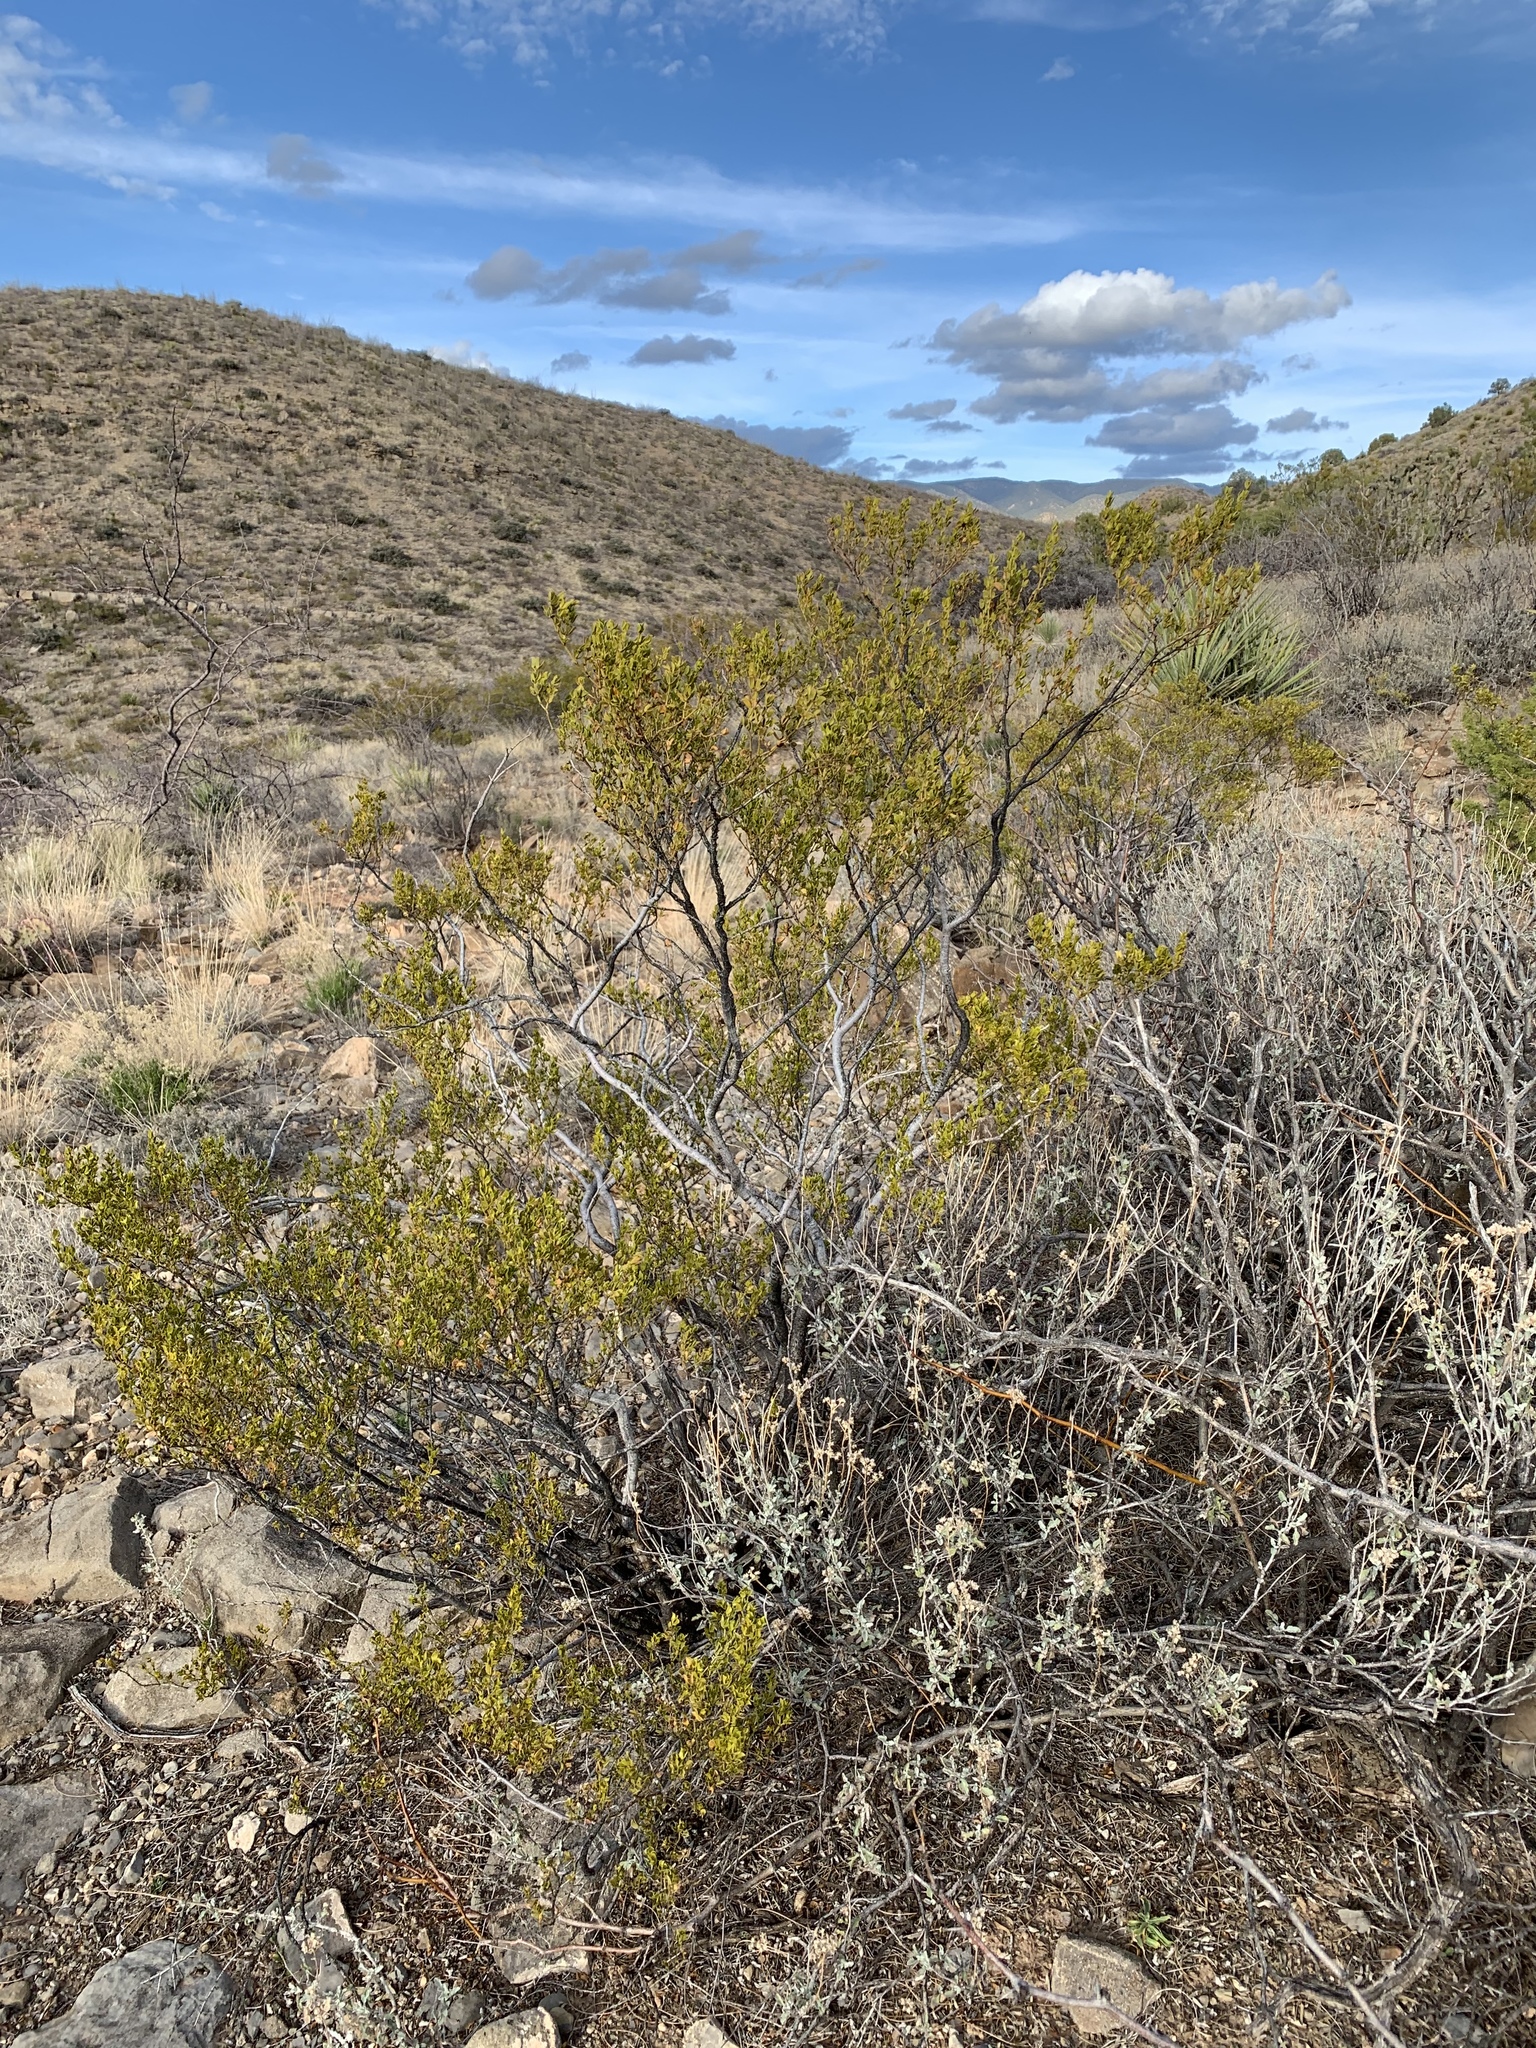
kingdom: Plantae
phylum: Tracheophyta
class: Magnoliopsida
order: Zygophyllales
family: Zygophyllaceae
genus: Larrea
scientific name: Larrea tridentata
